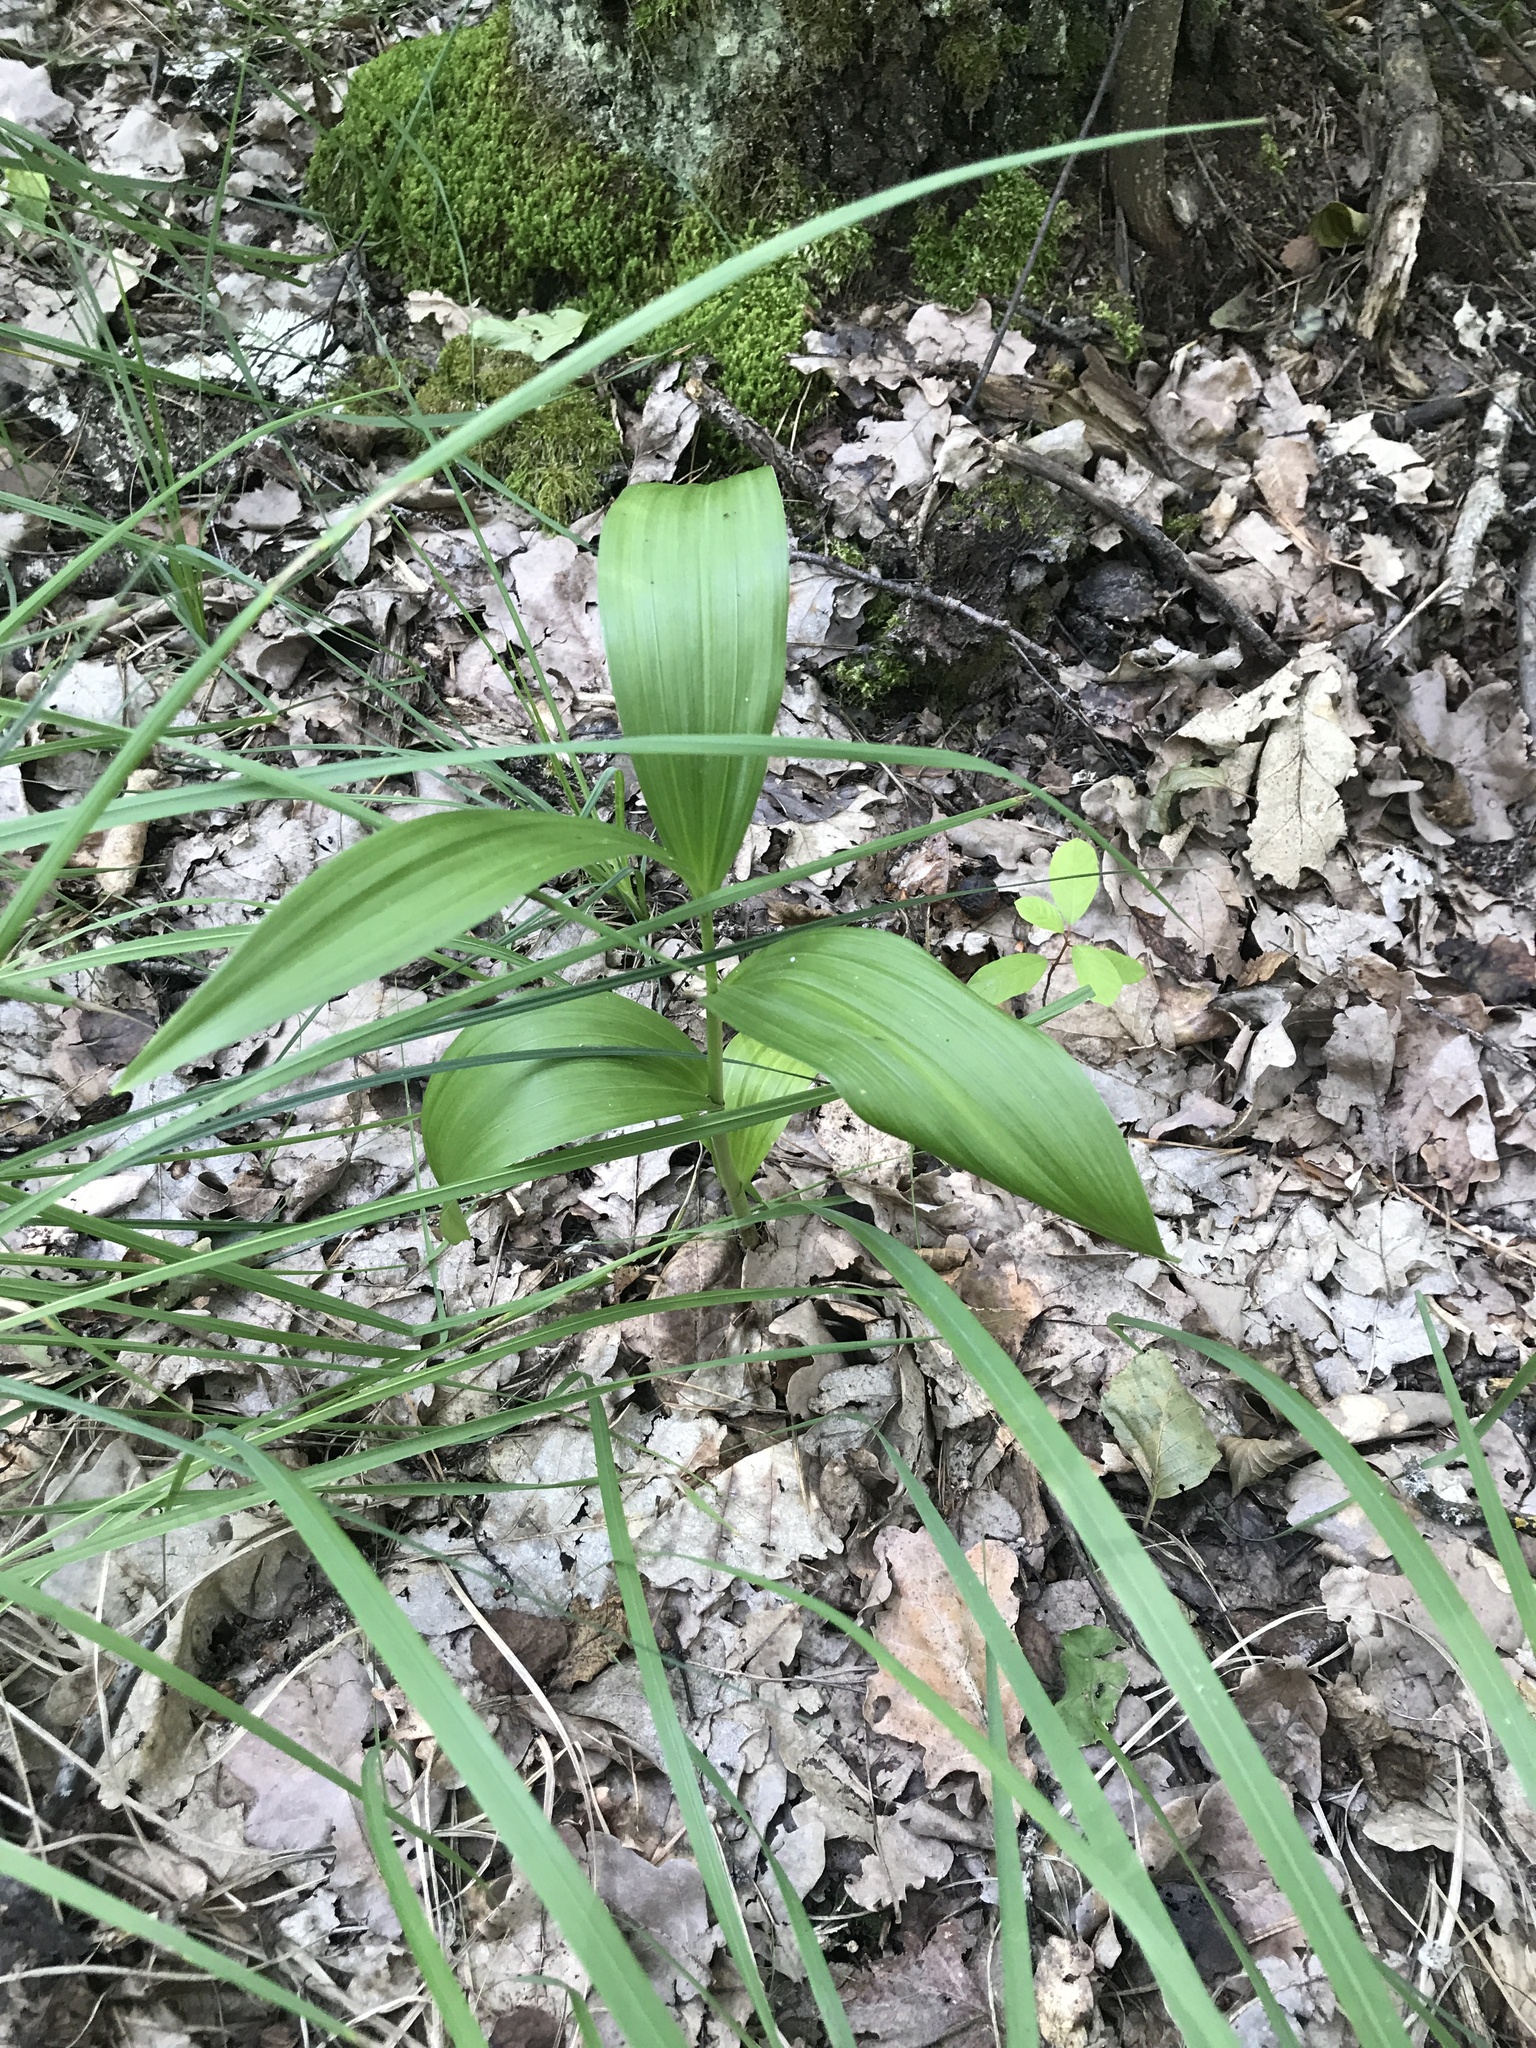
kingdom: Plantae
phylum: Tracheophyta
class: Liliopsida
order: Liliales
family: Melanthiaceae
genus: Veratrum
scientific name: Veratrum lobelianum
